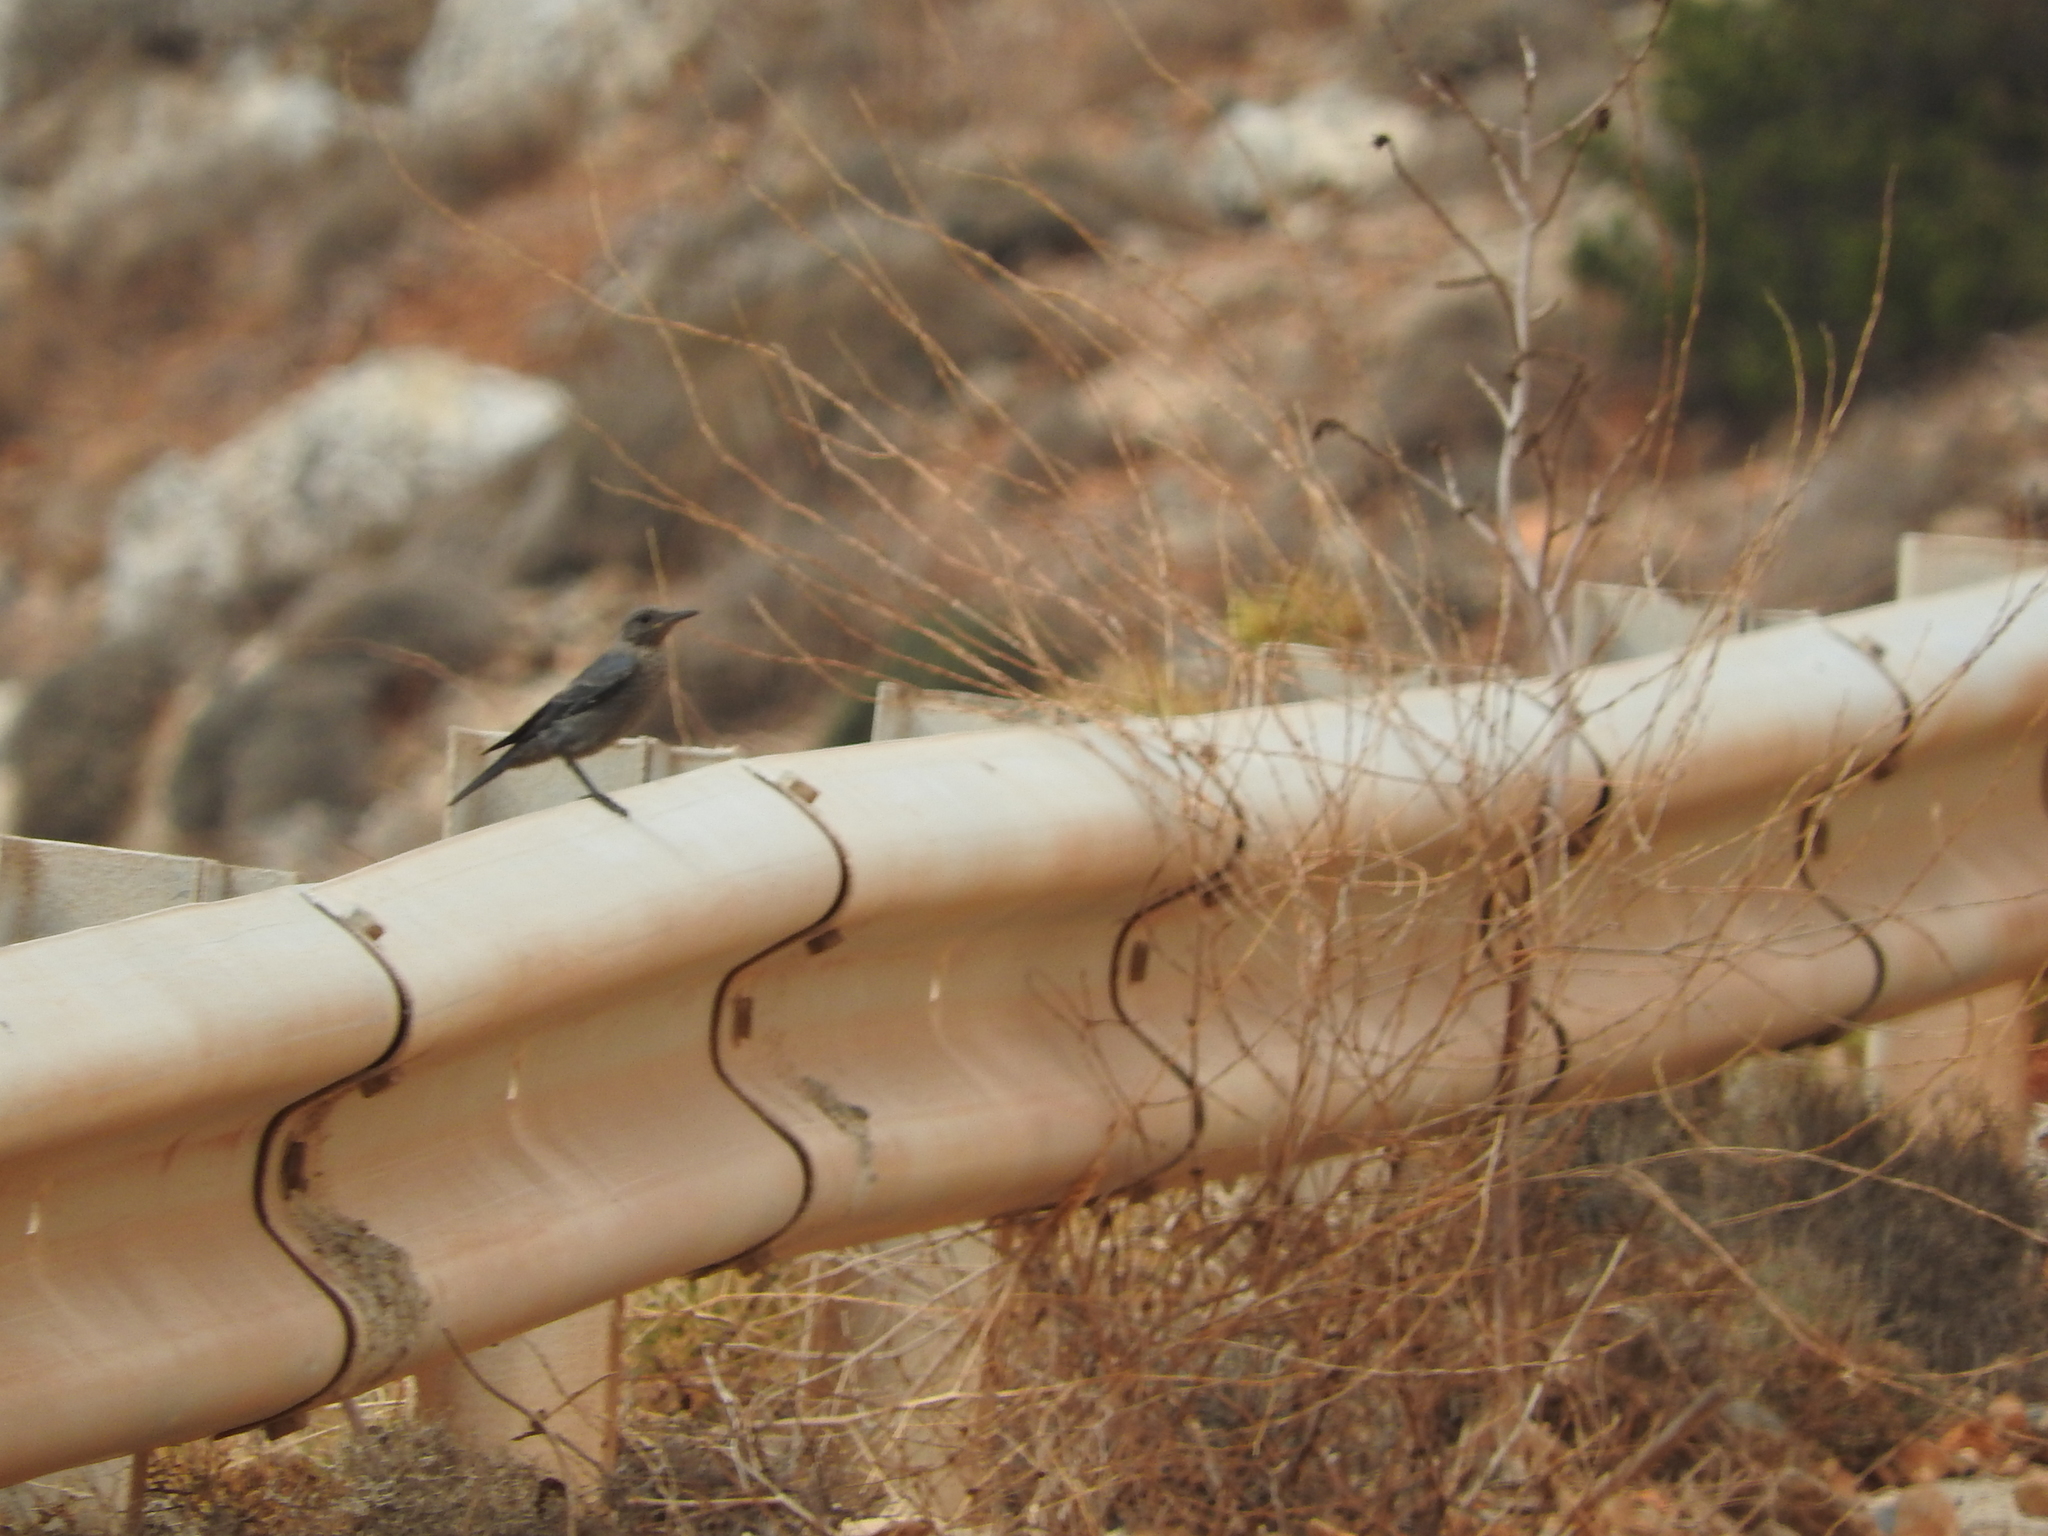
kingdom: Animalia
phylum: Chordata
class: Aves
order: Passeriformes
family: Muscicapidae
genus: Monticola
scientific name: Monticola solitarius
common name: Blue rock thrush
